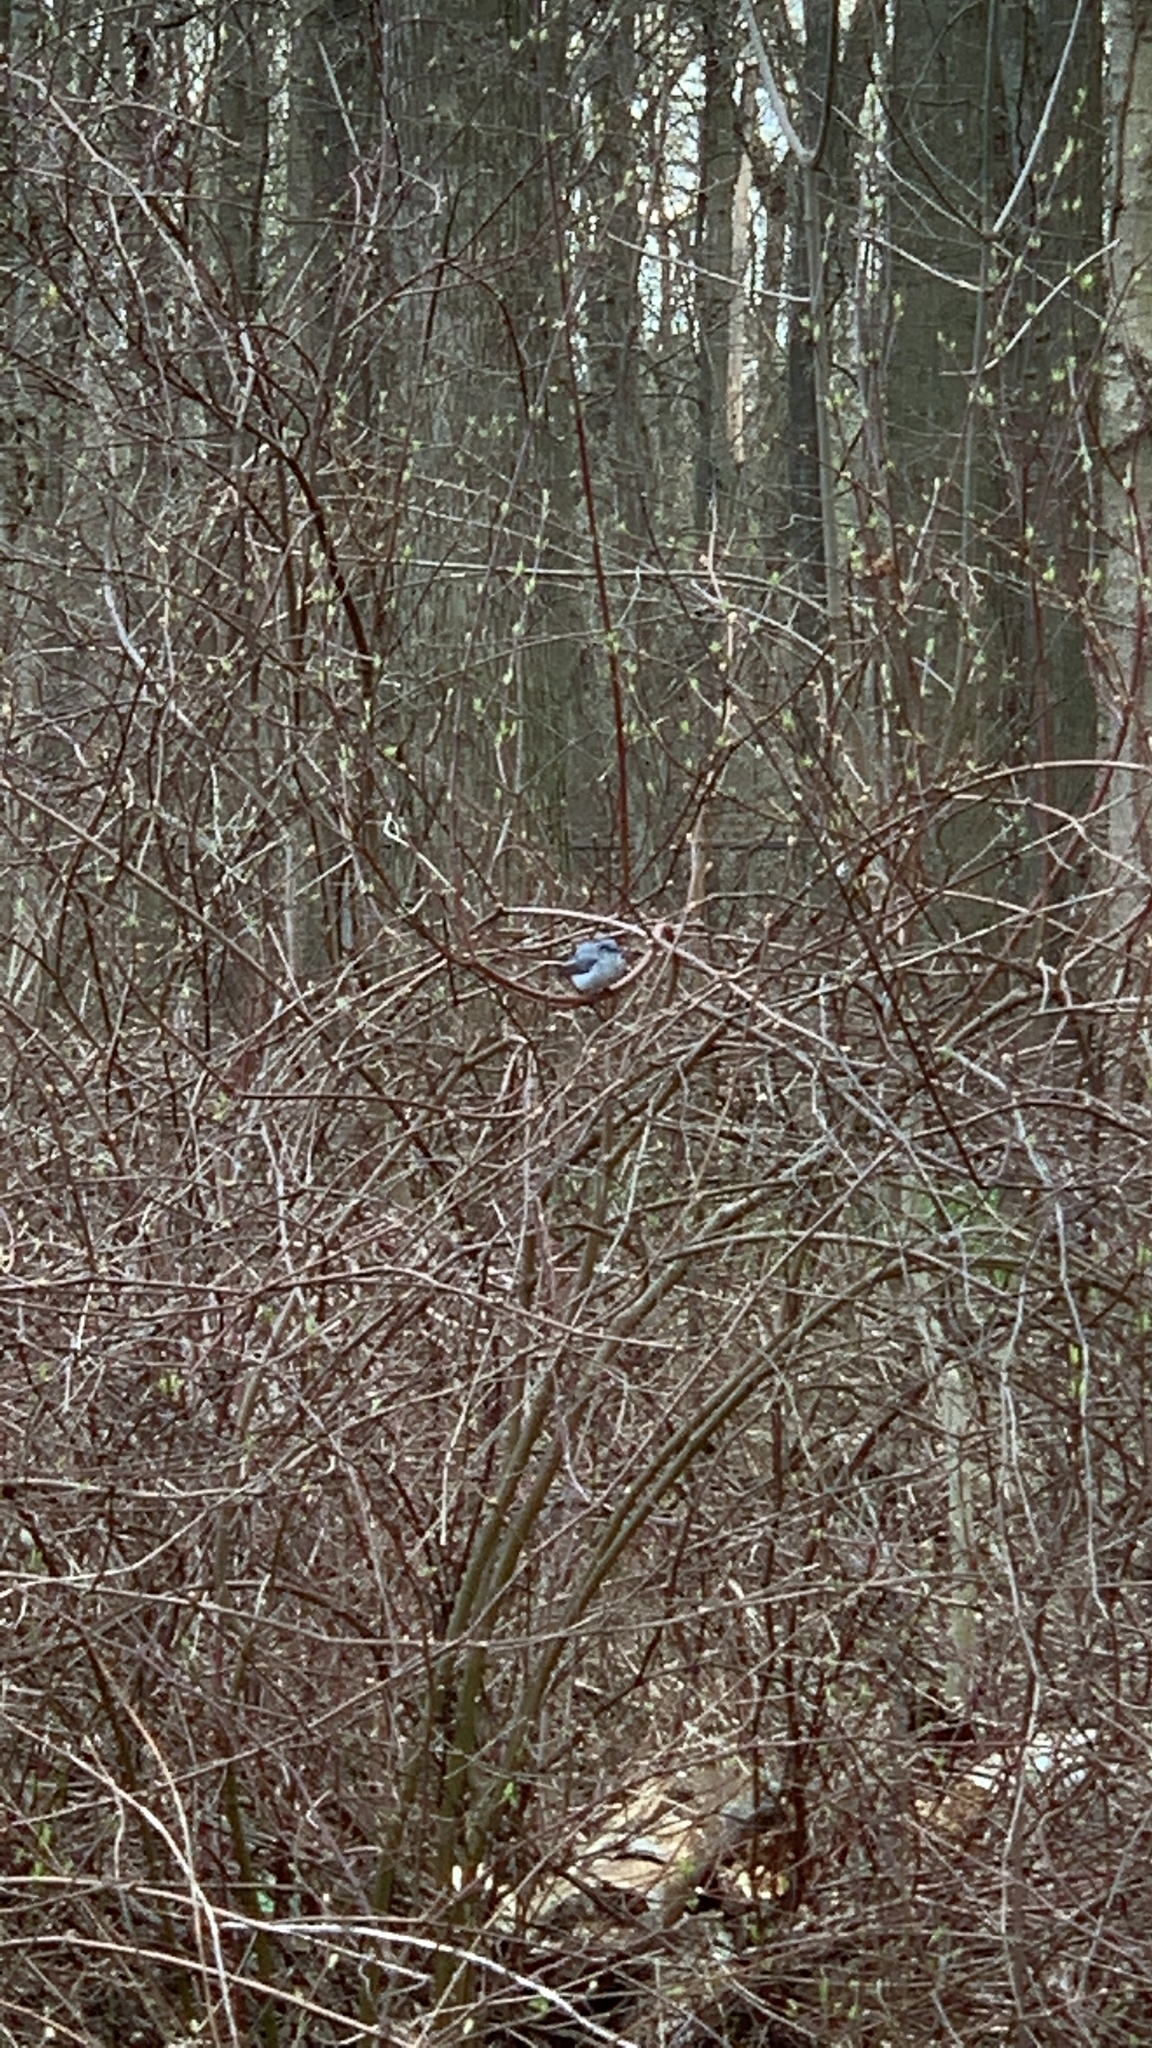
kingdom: Animalia
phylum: Chordata
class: Aves
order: Passeriformes
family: Polioptilidae
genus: Polioptila
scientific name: Polioptila caerulea
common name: Blue-gray gnatcatcher
